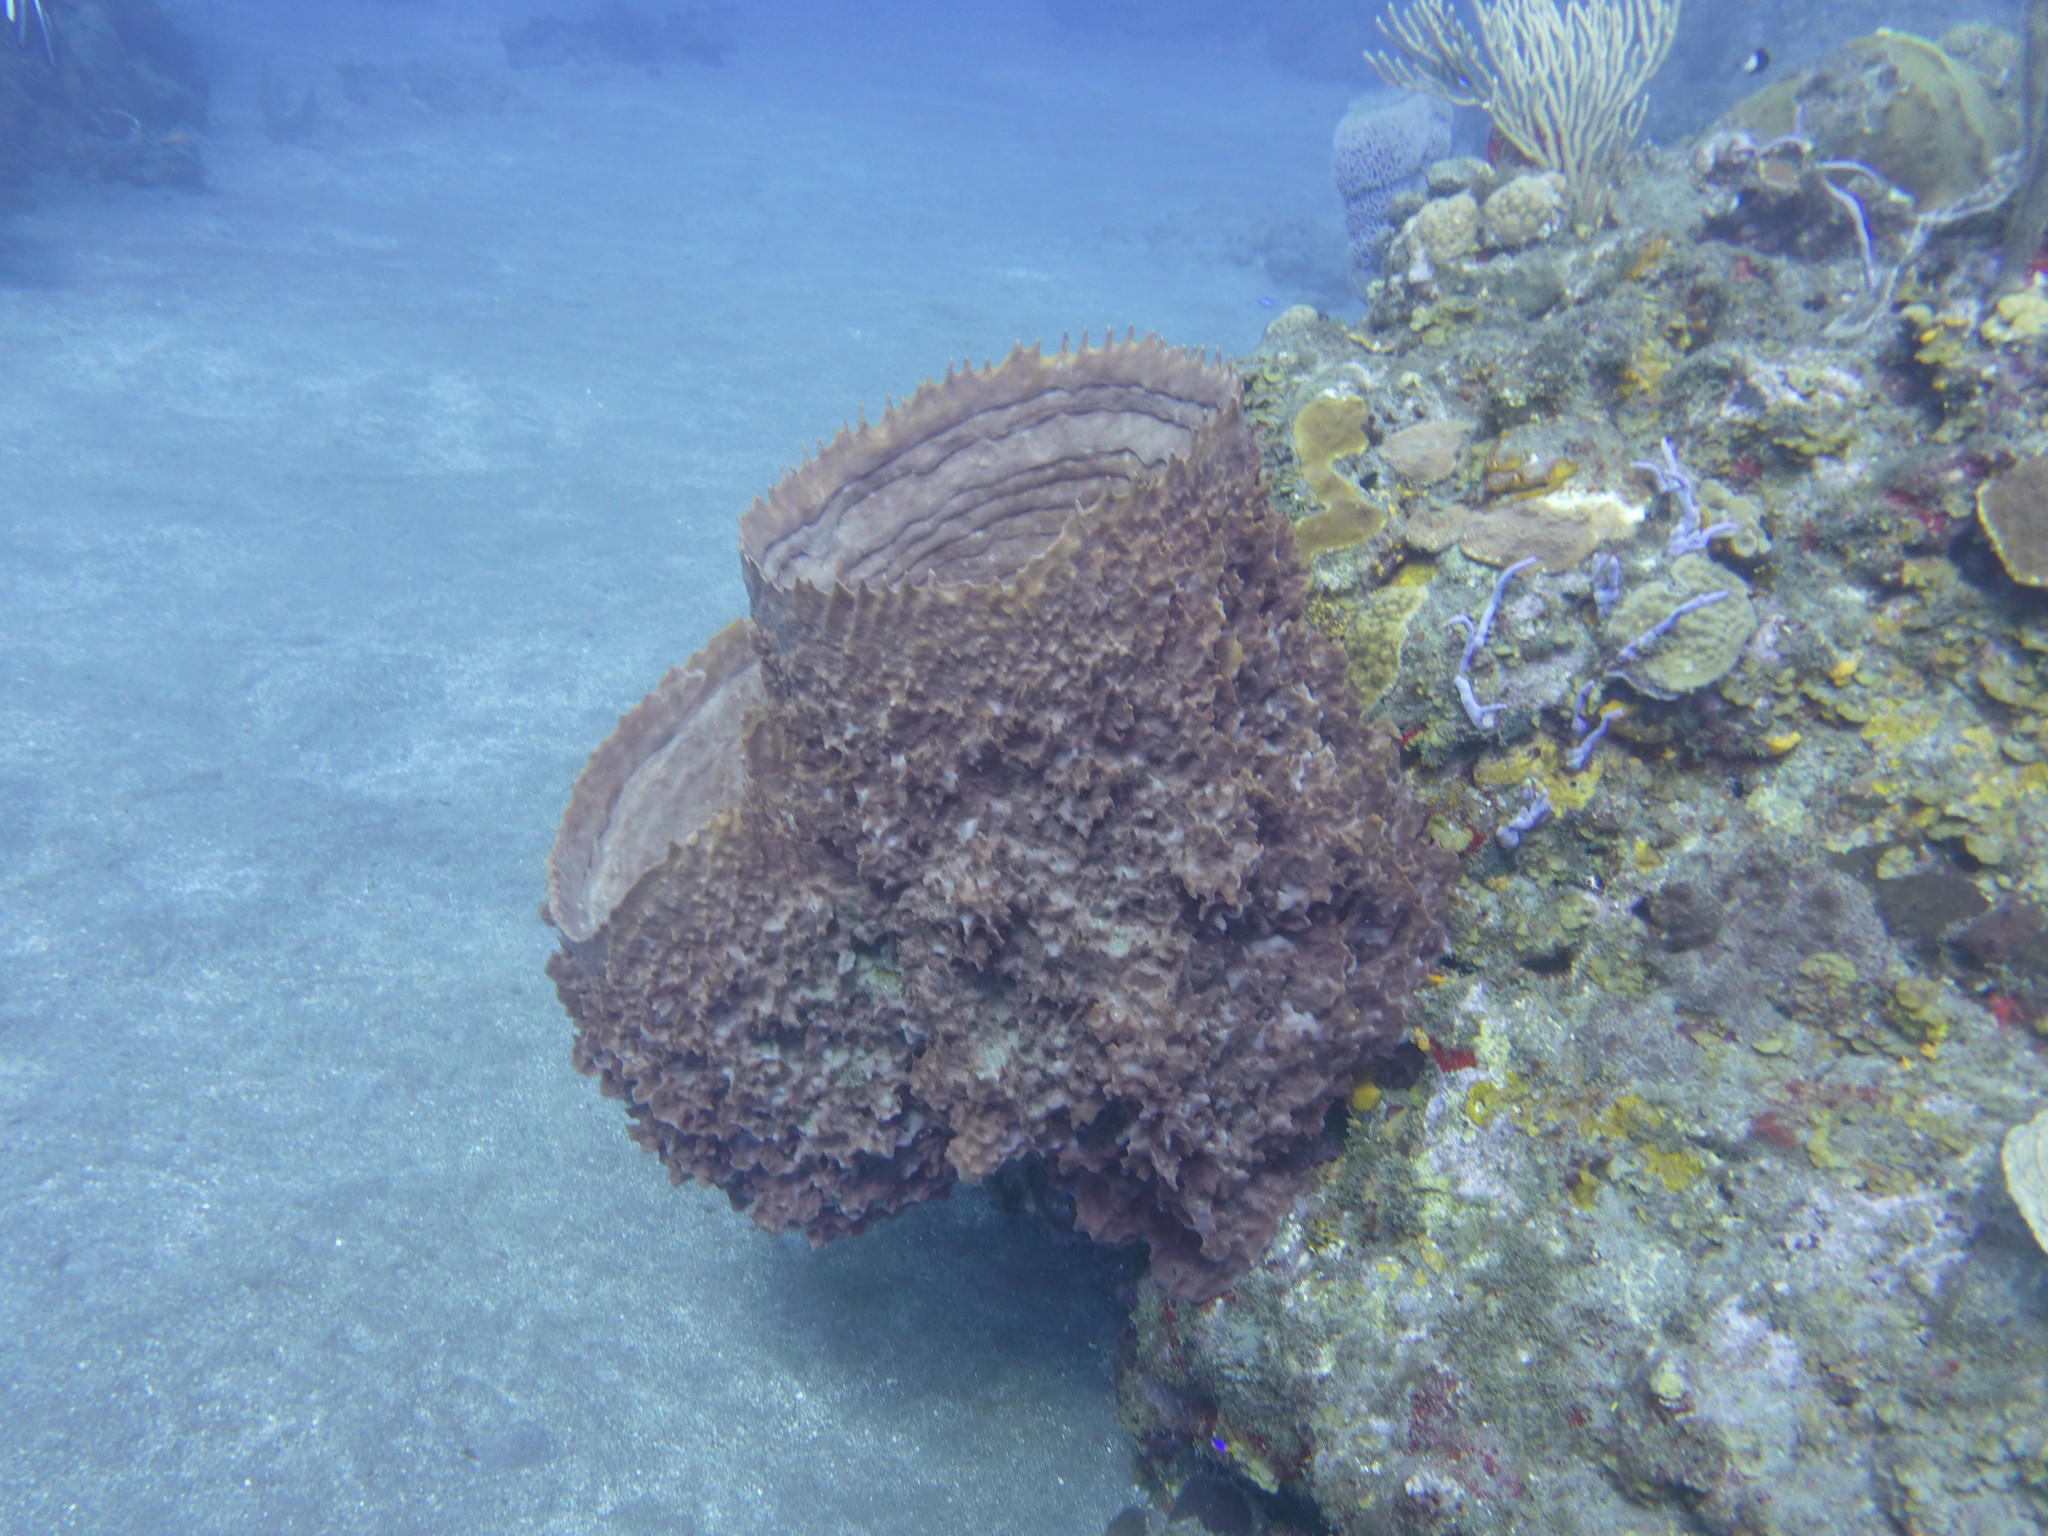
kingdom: Animalia
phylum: Porifera
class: Demospongiae
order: Haplosclerida
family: Petrosiidae
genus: Xestospongia
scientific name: Xestospongia muta
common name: Giant barrel sponge
